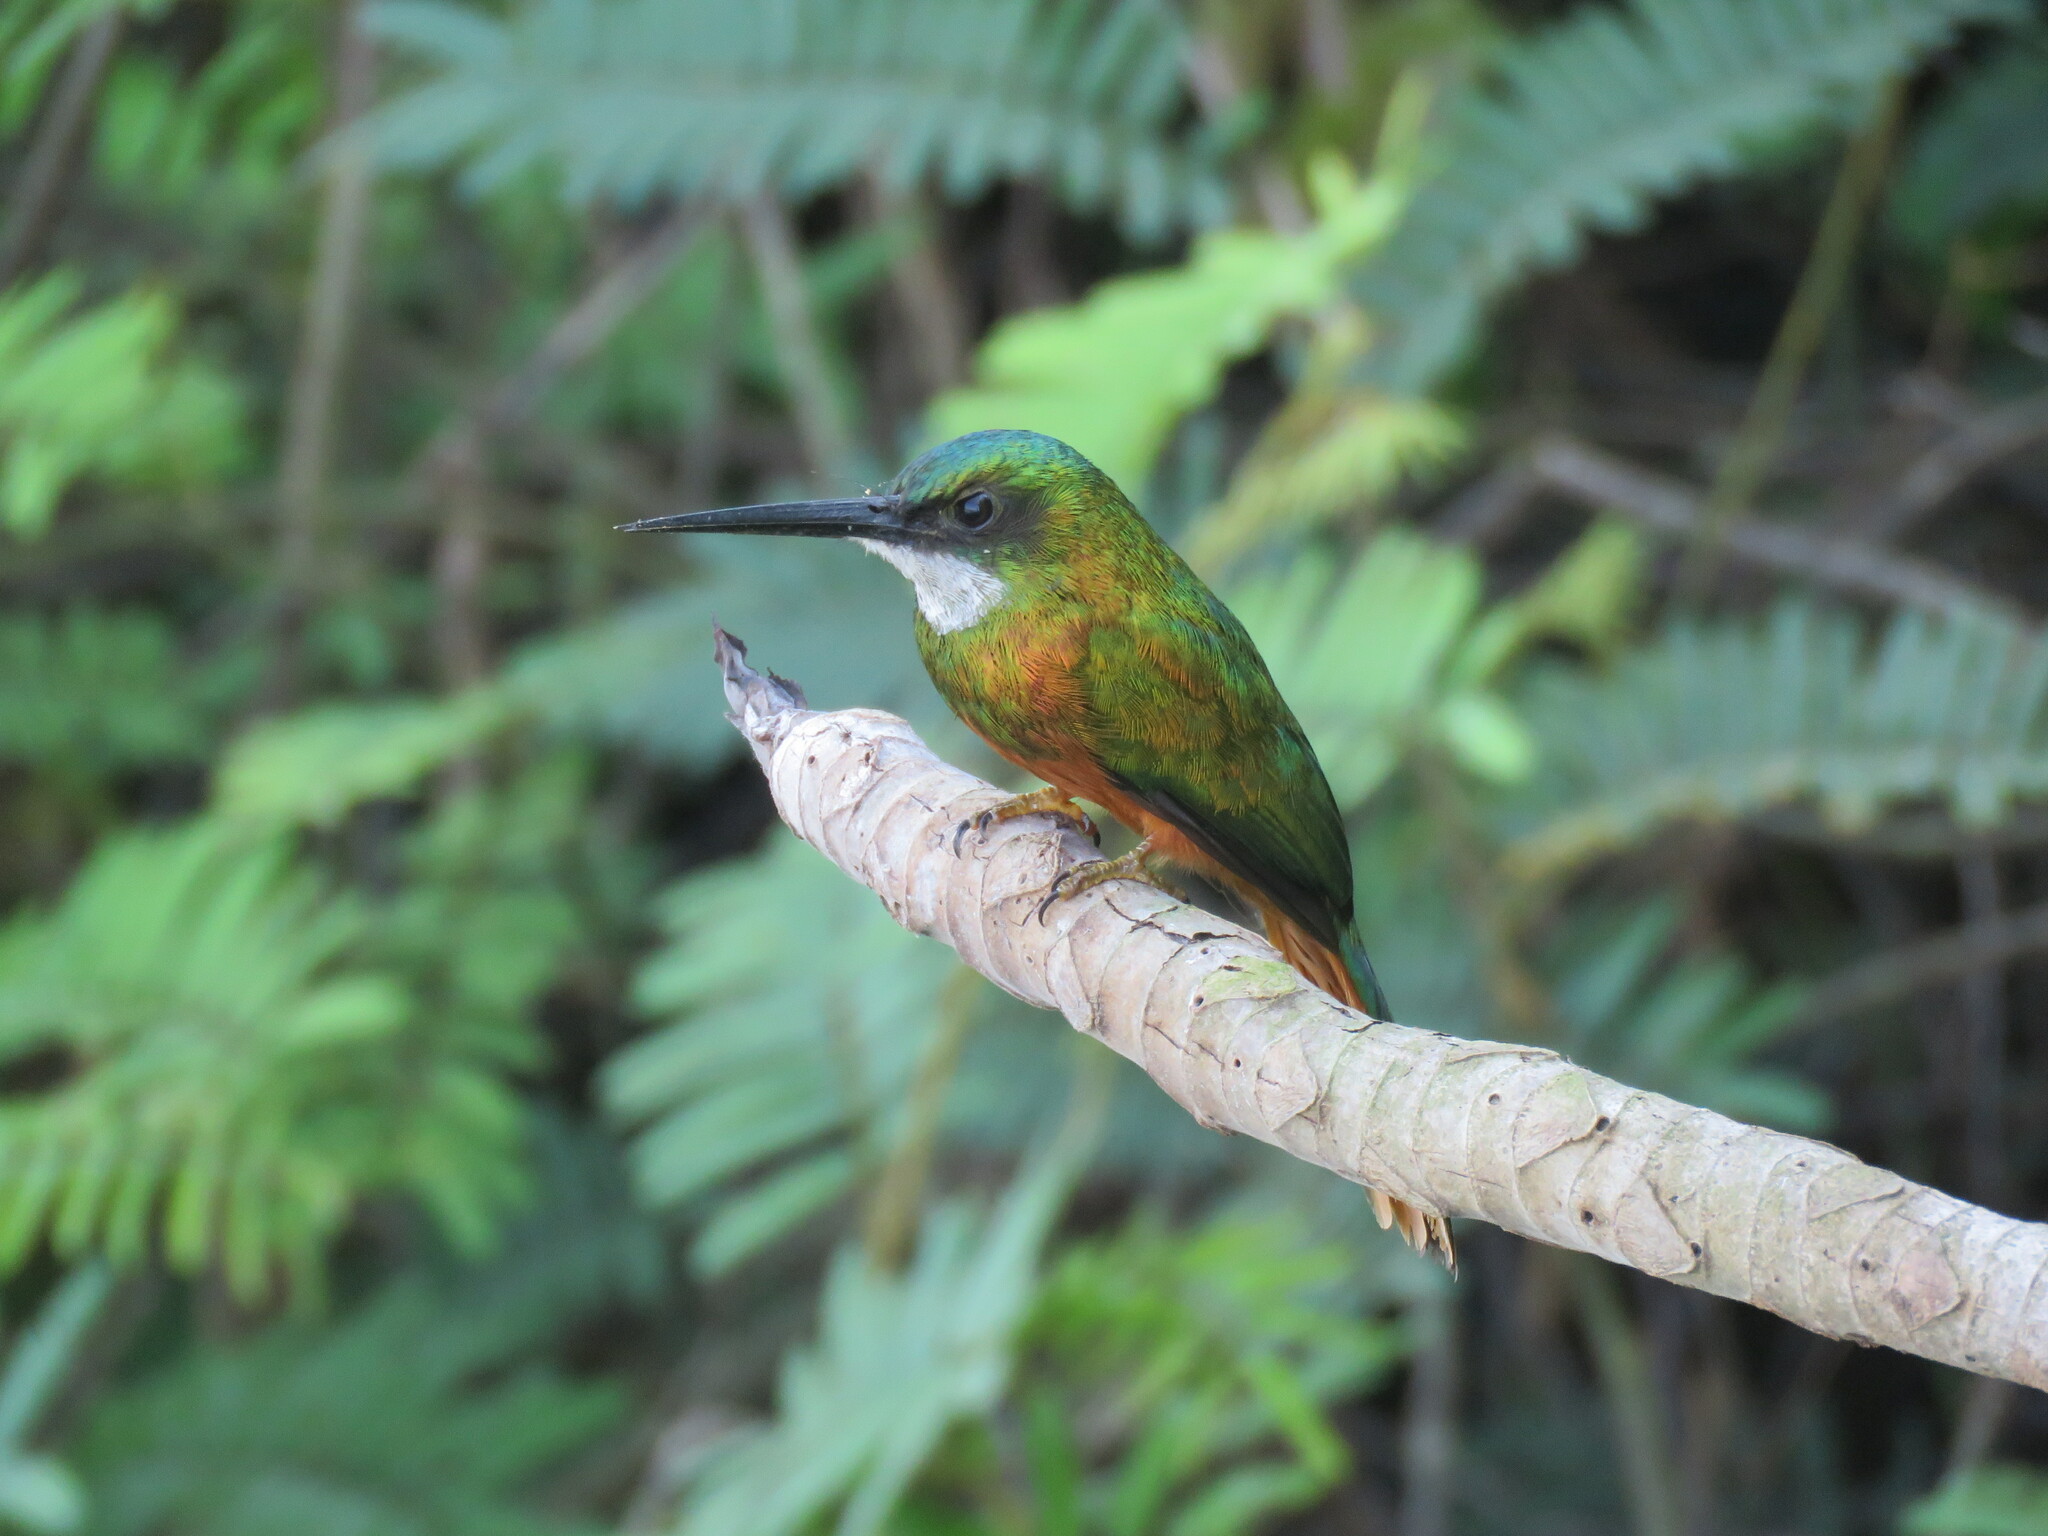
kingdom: Animalia
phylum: Chordata
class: Aves
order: Piciformes
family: Galbulidae
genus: Galbula
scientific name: Galbula ruficauda
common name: Rufous-tailed jacamar
